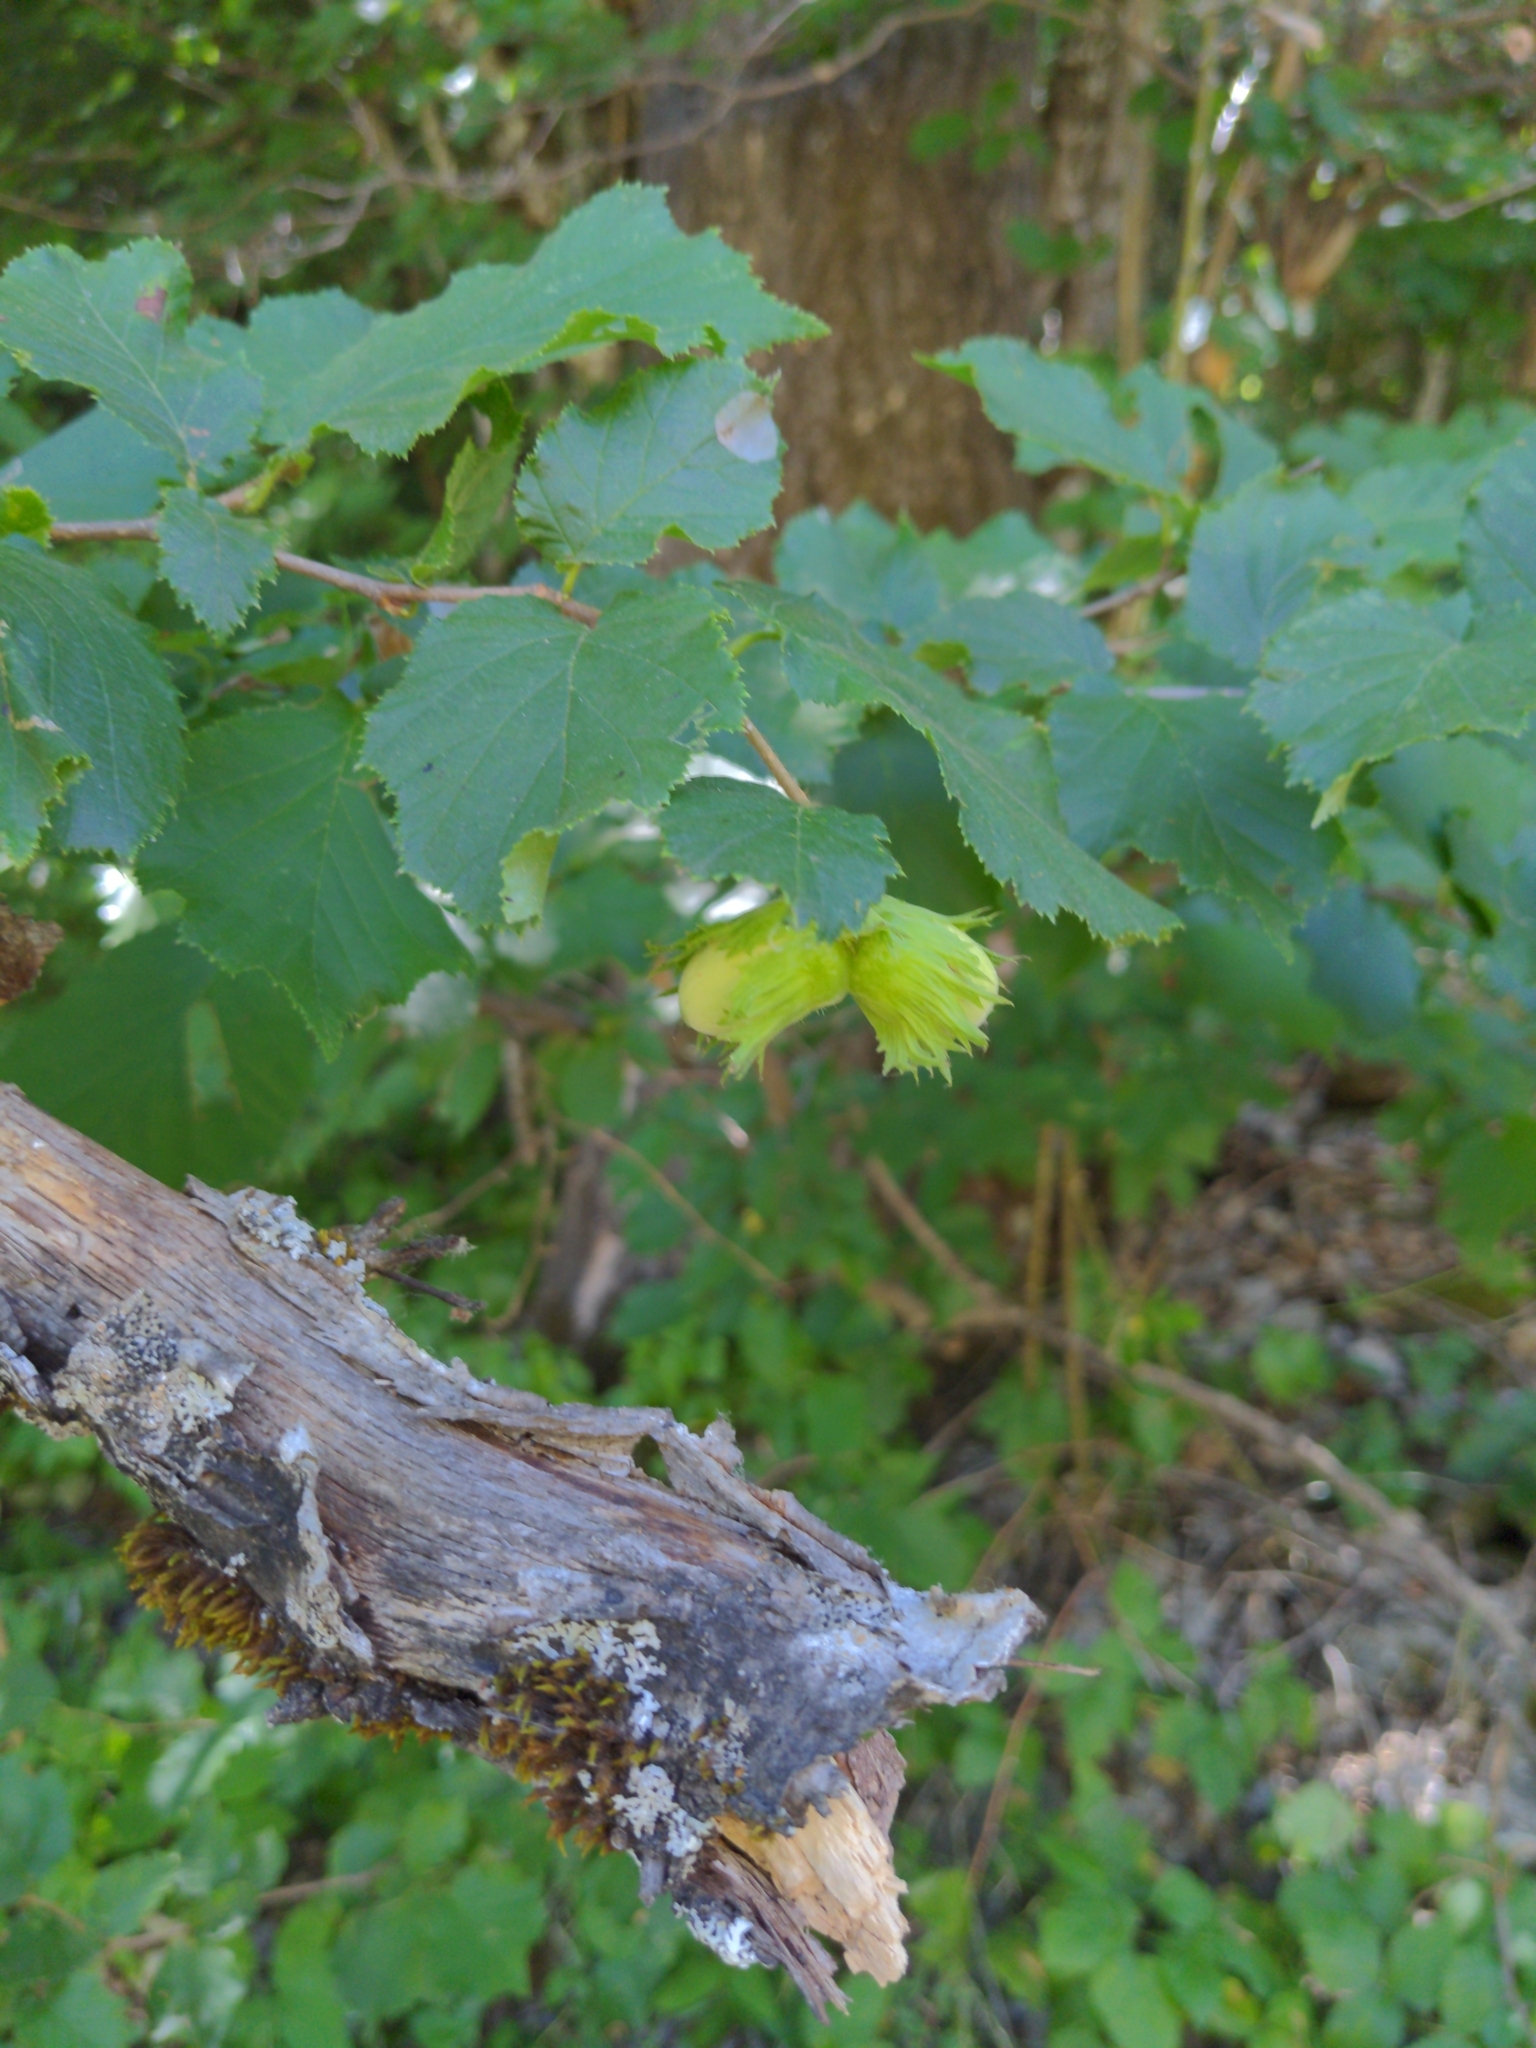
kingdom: Plantae
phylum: Tracheophyta
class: Magnoliopsida
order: Fagales
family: Betulaceae
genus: Corylus
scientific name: Corylus avellana
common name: European hazel
